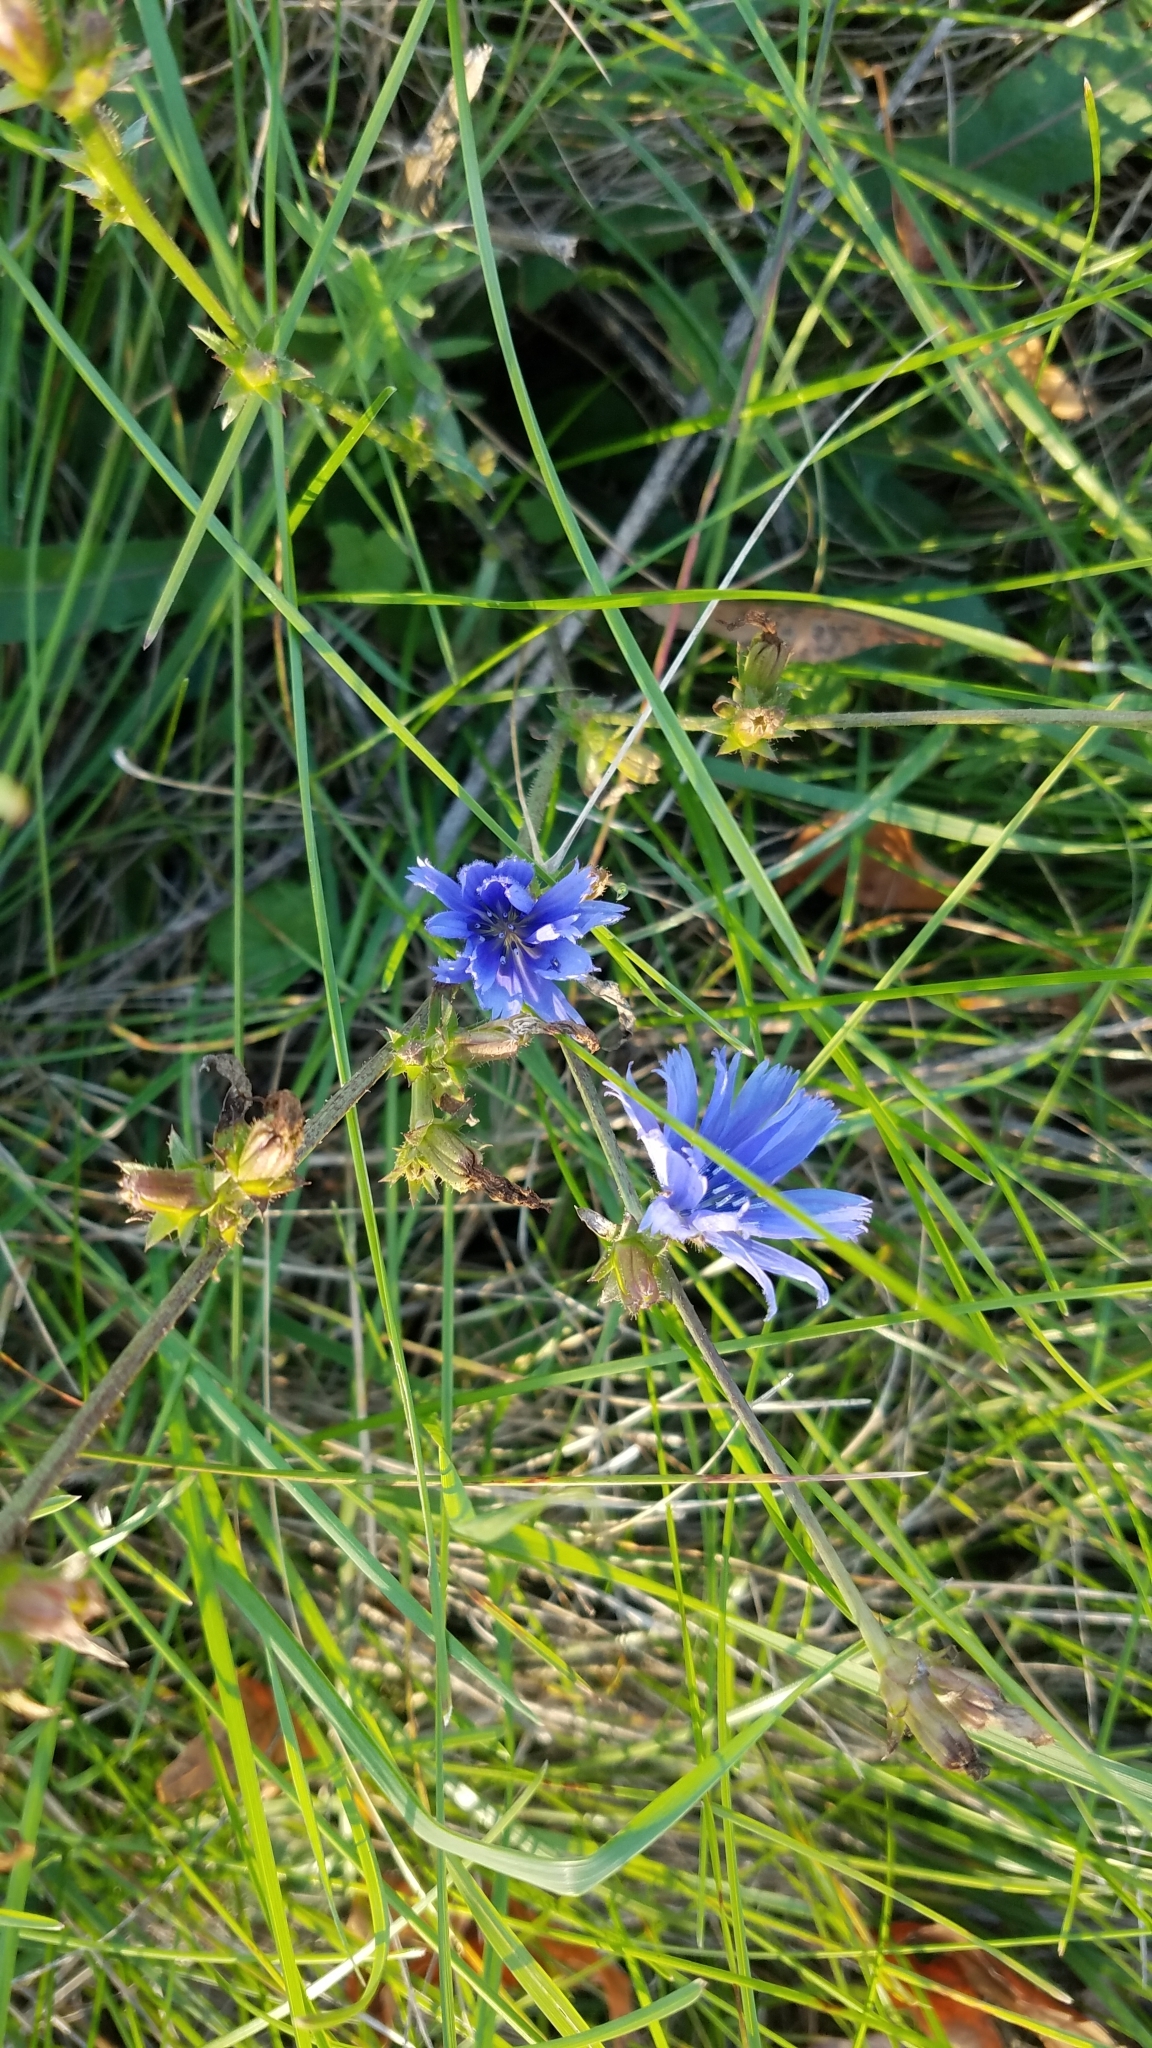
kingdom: Plantae
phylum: Tracheophyta
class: Magnoliopsida
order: Asterales
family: Asteraceae
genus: Cichorium
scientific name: Cichorium intybus
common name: Chicory
